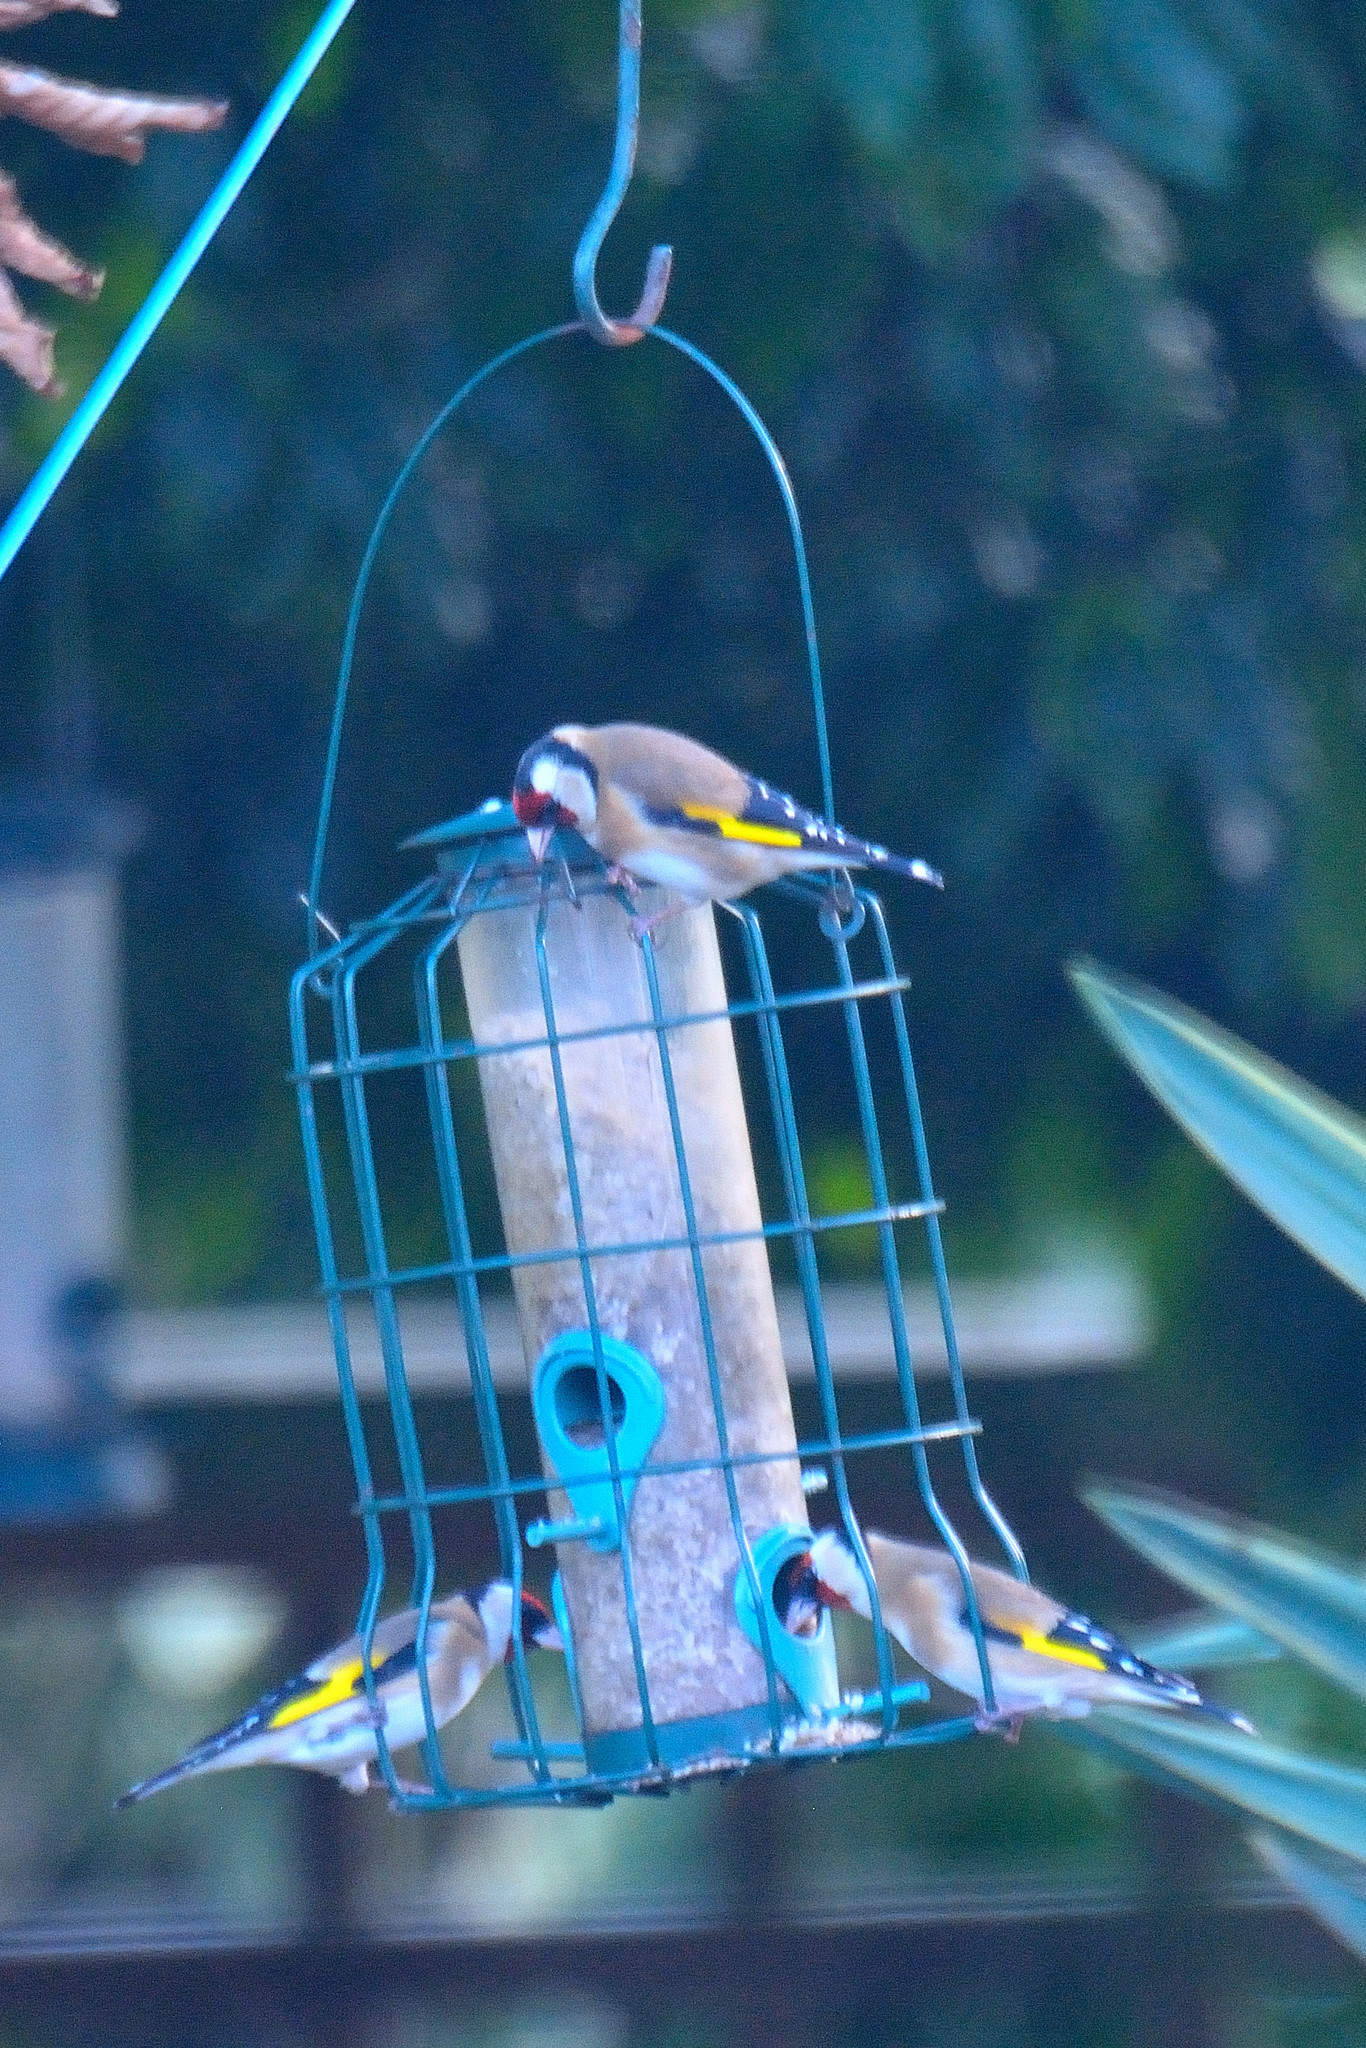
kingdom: Animalia
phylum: Chordata
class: Aves
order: Passeriformes
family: Fringillidae
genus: Carduelis
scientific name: Carduelis carduelis
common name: European goldfinch
